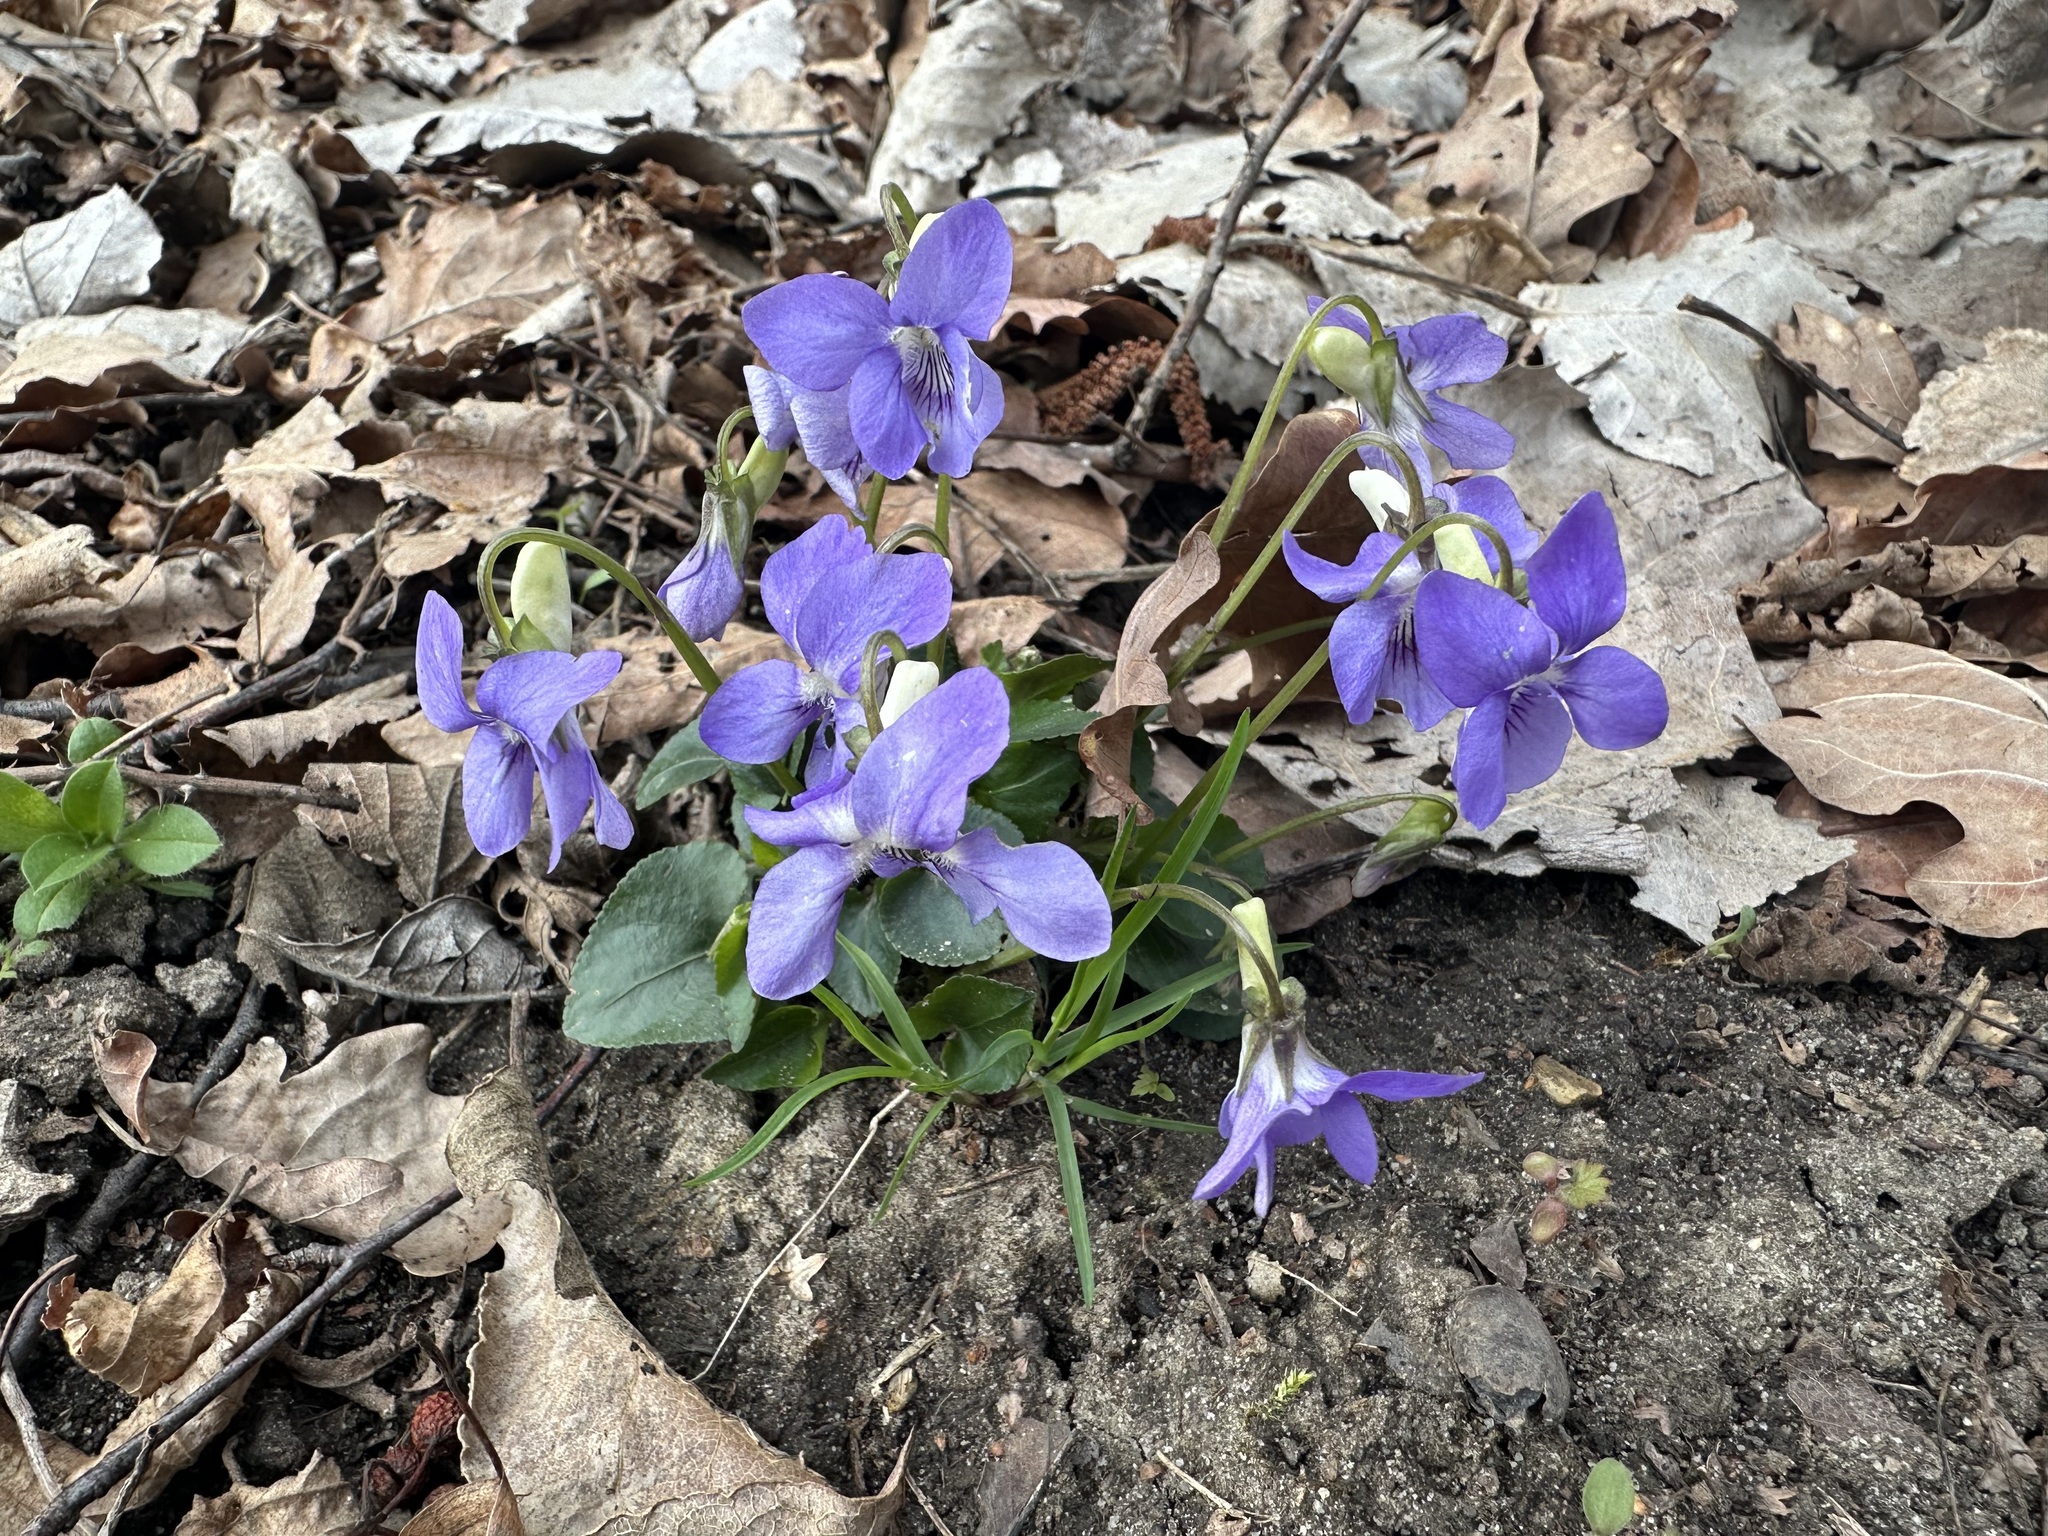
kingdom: Plantae
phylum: Tracheophyta
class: Magnoliopsida
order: Malpighiales
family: Violaceae
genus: Viola
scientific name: Viola riviniana
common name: Common dog-violet
